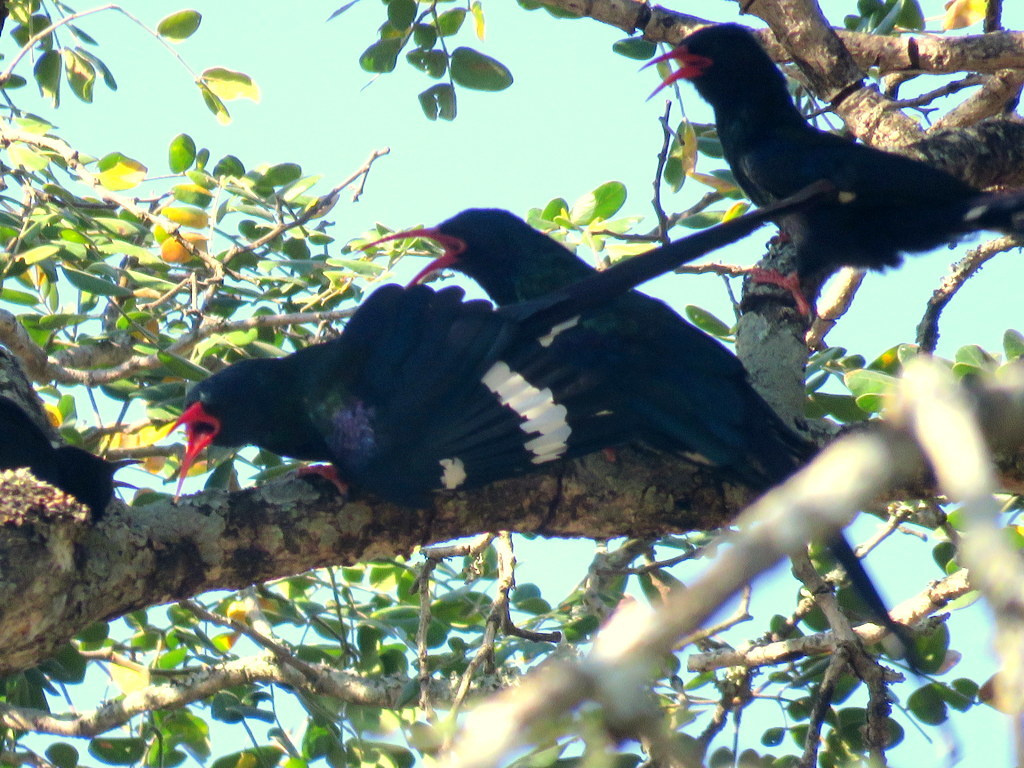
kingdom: Animalia
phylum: Chordata
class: Aves
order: Bucerotiformes
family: Phoeniculidae
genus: Phoeniculus
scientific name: Phoeniculus purpureus
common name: Green woodhoopoe
